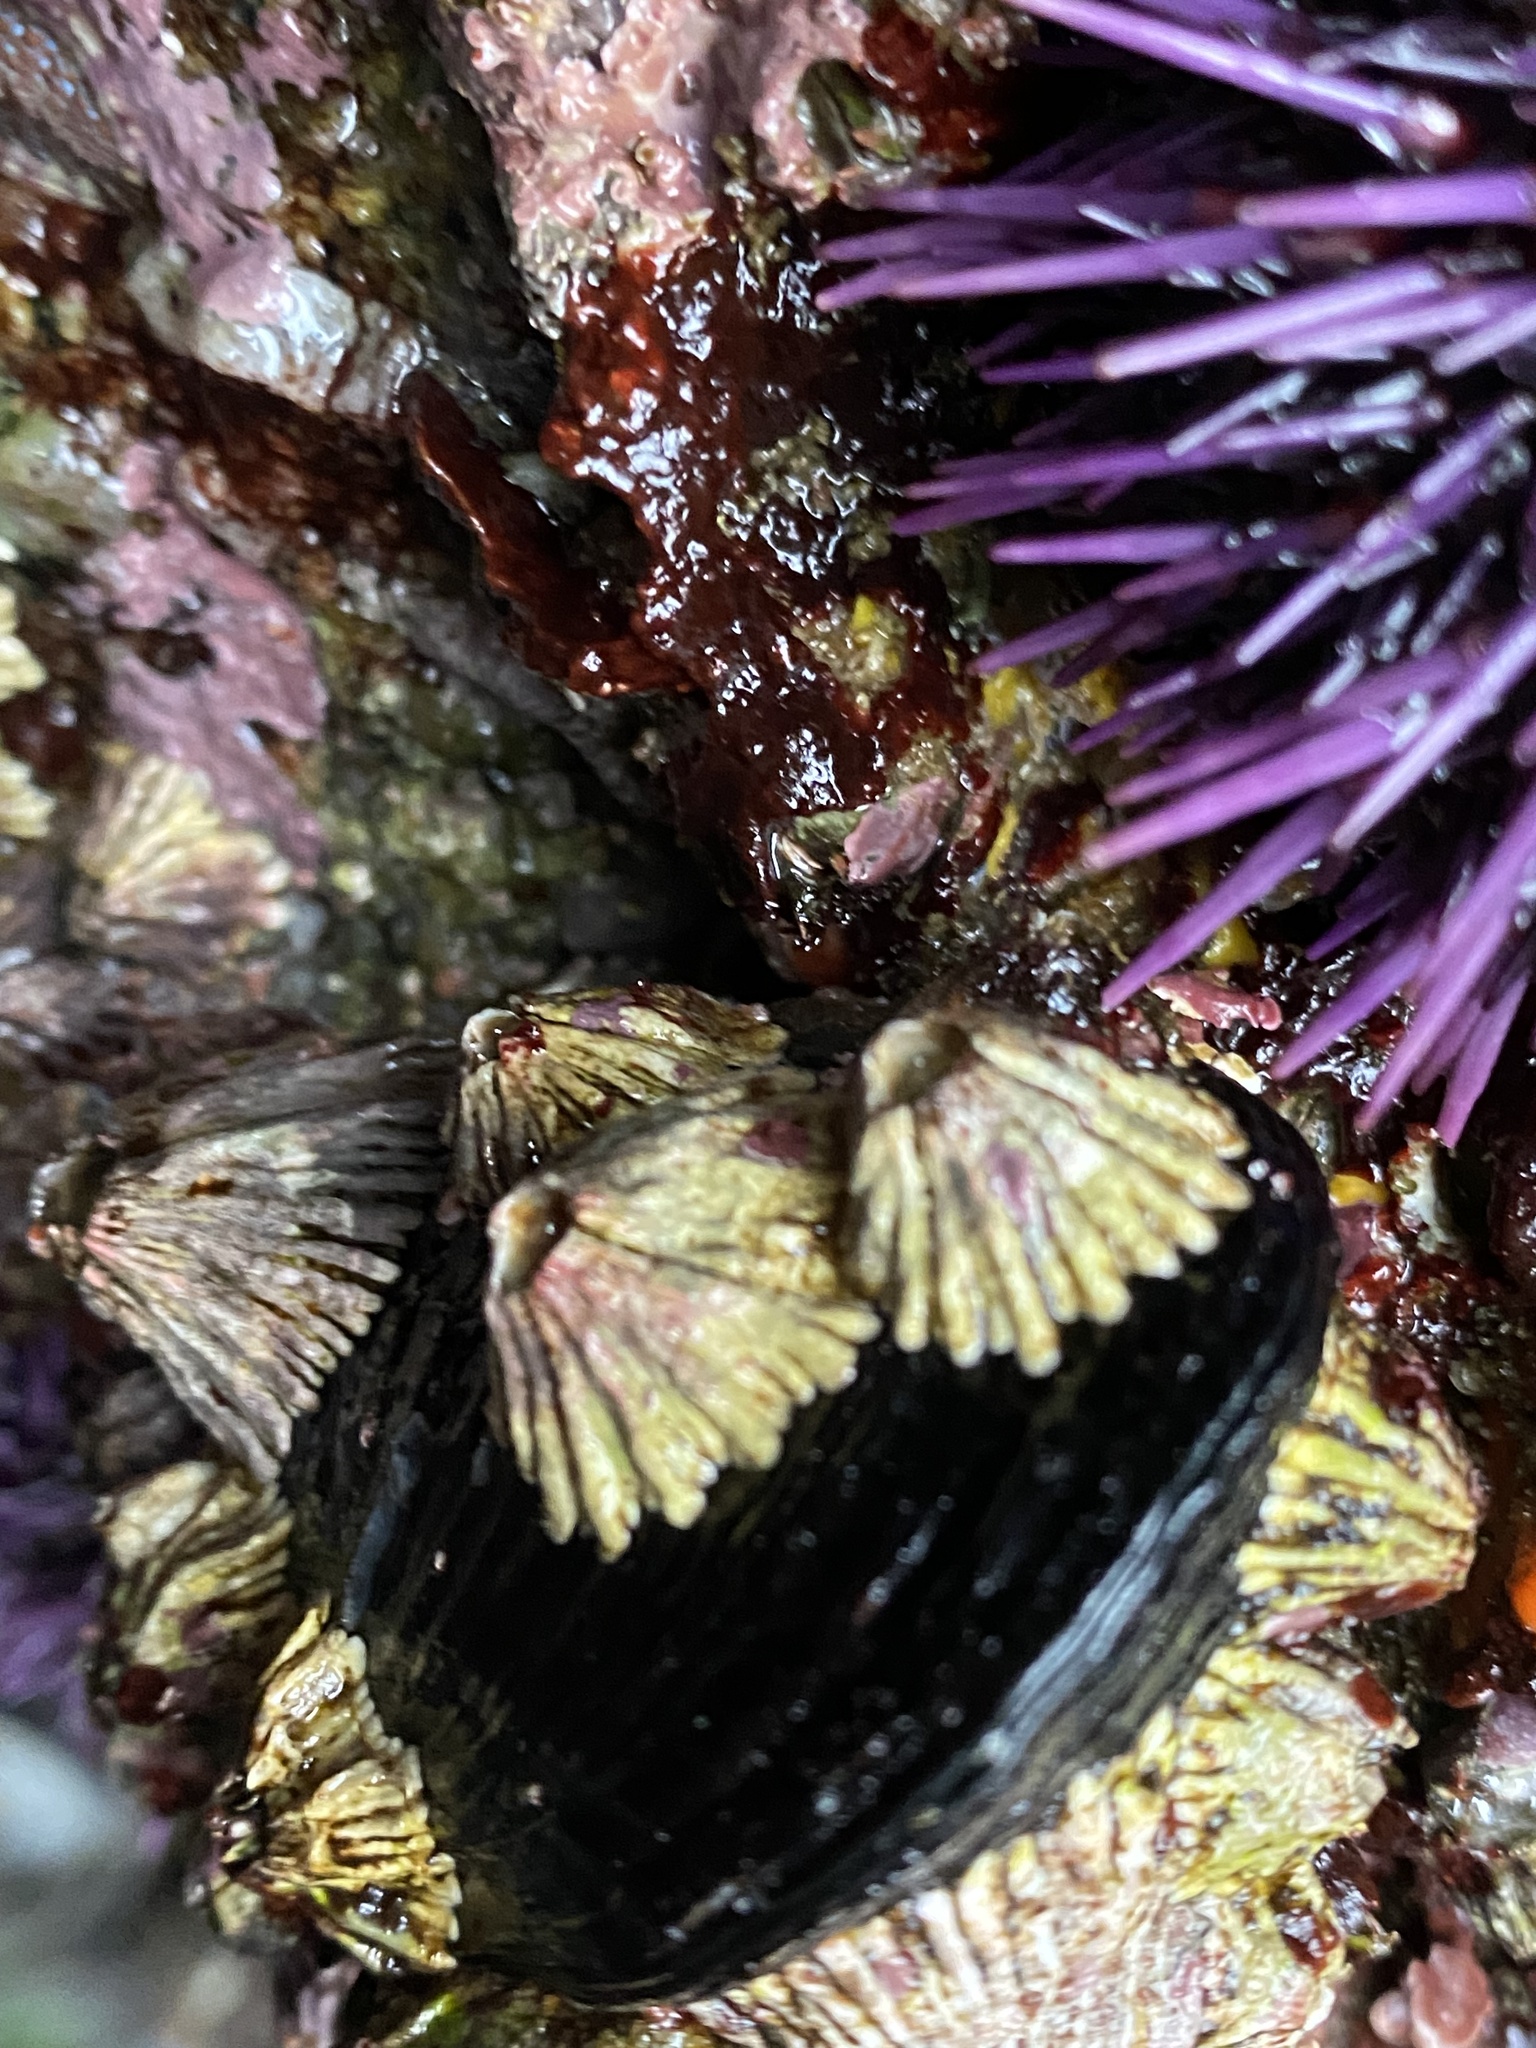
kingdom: Animalia
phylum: Arthropoda
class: Maxillopoda
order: Sessilia
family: Archaeobalanidae
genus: Semibalanus
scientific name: Semibalanus cariosus
